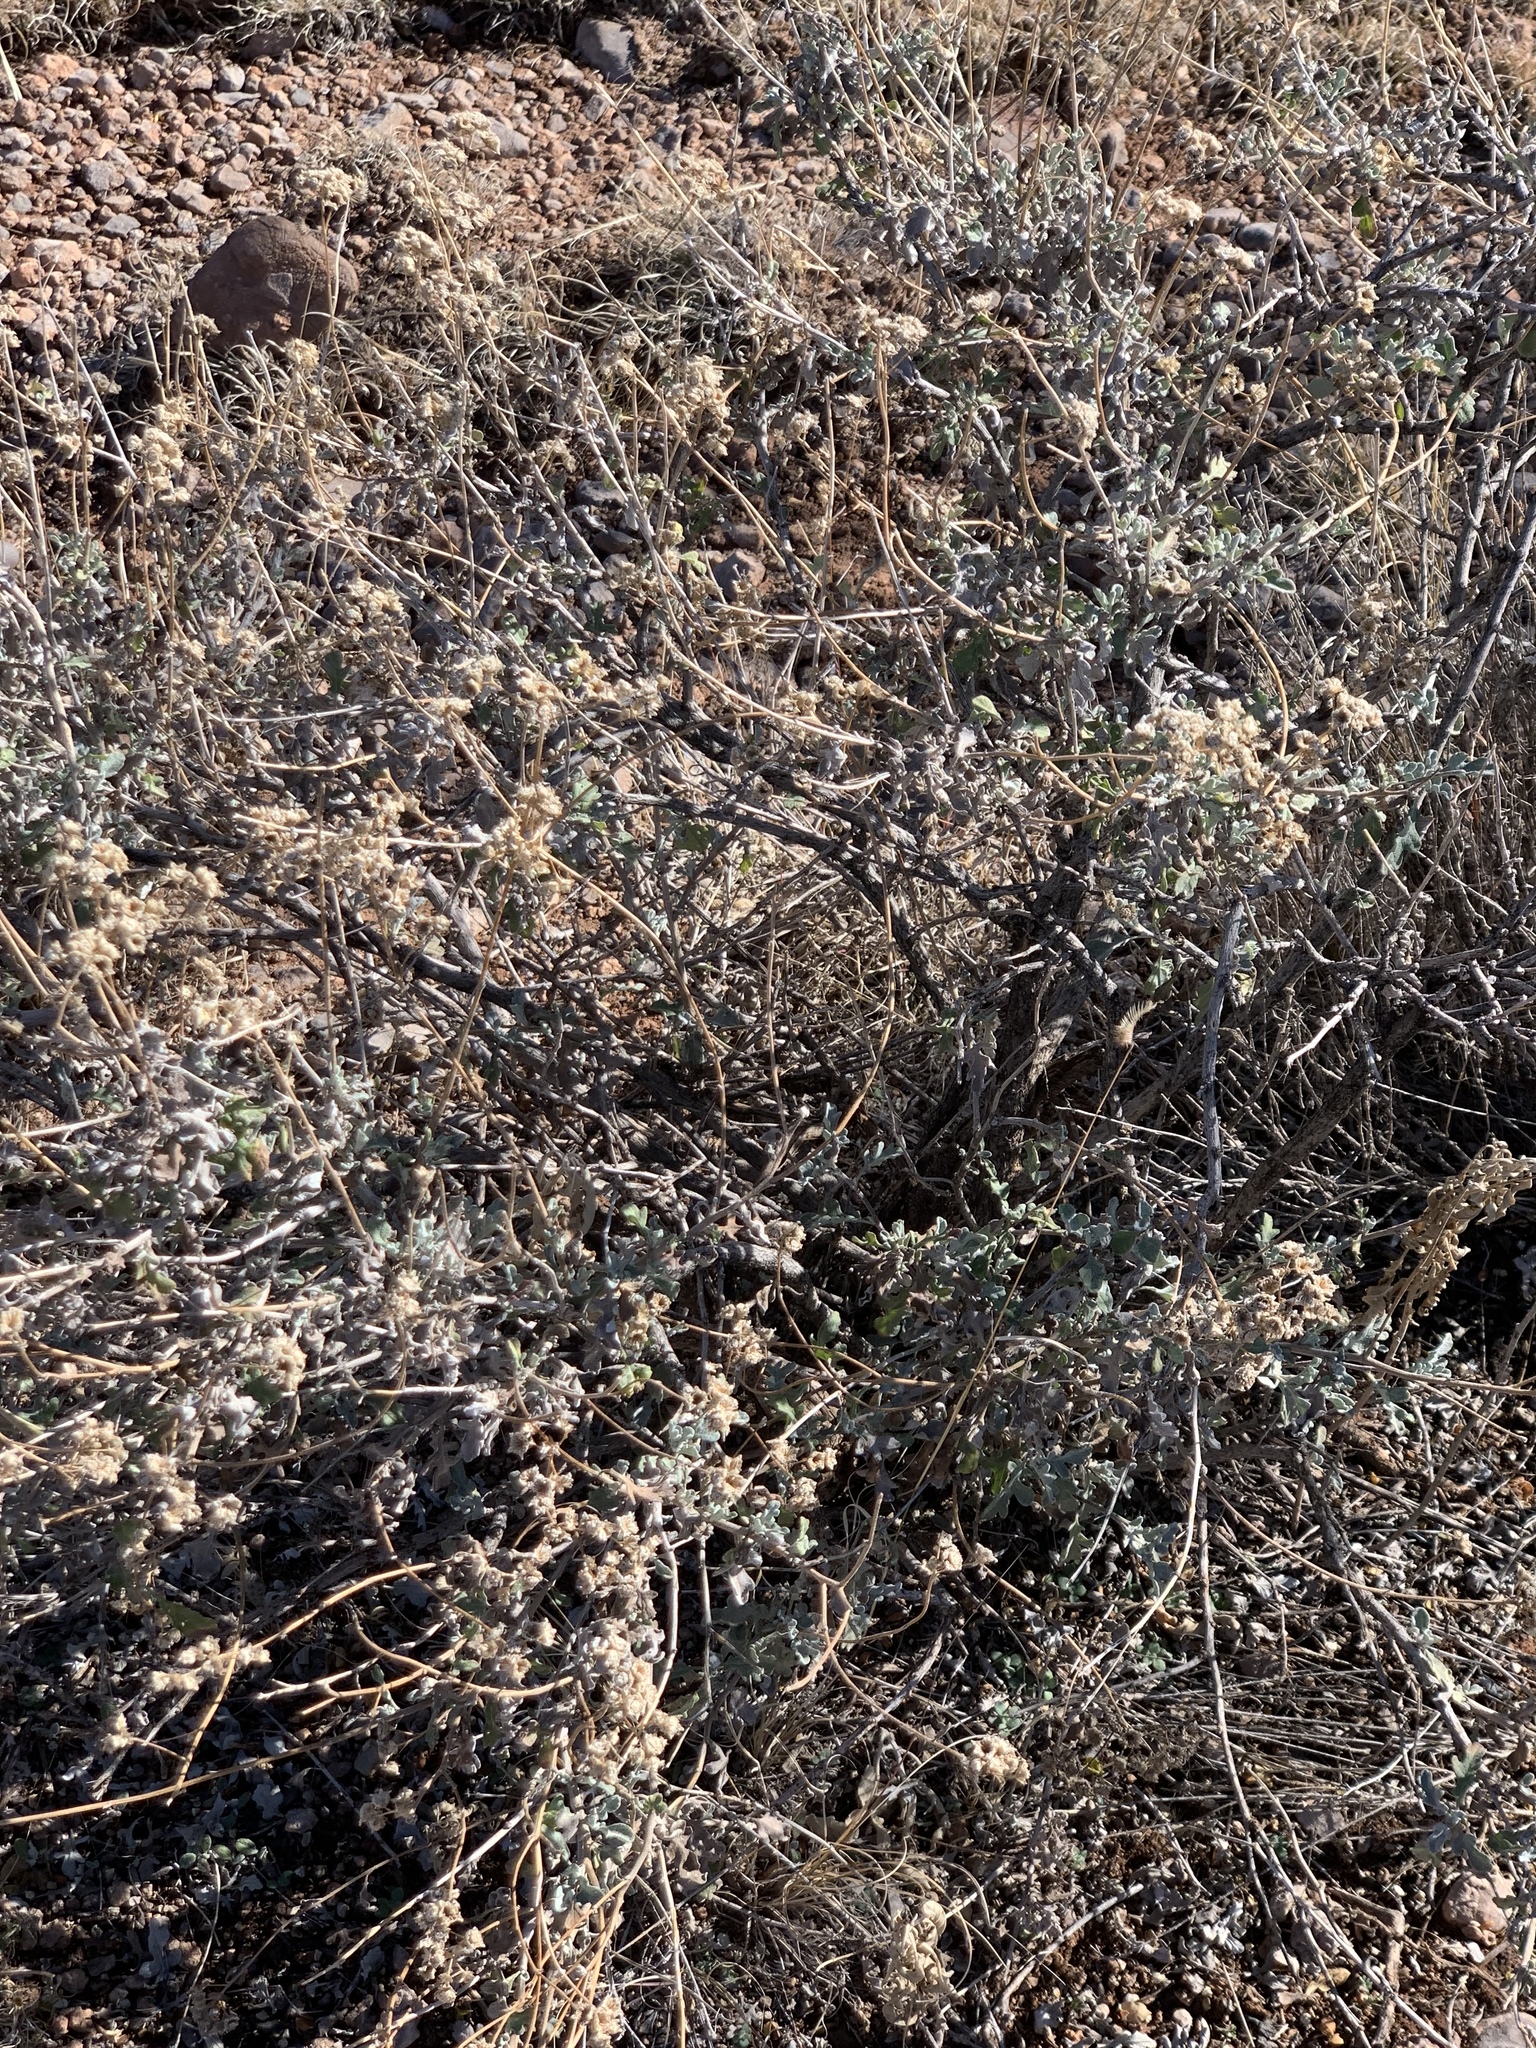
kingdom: Plantae
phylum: Tracheophyta
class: Magnoliopsida
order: Asterales
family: Asteraceae
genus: Parthenium
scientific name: Parthenium incanum
